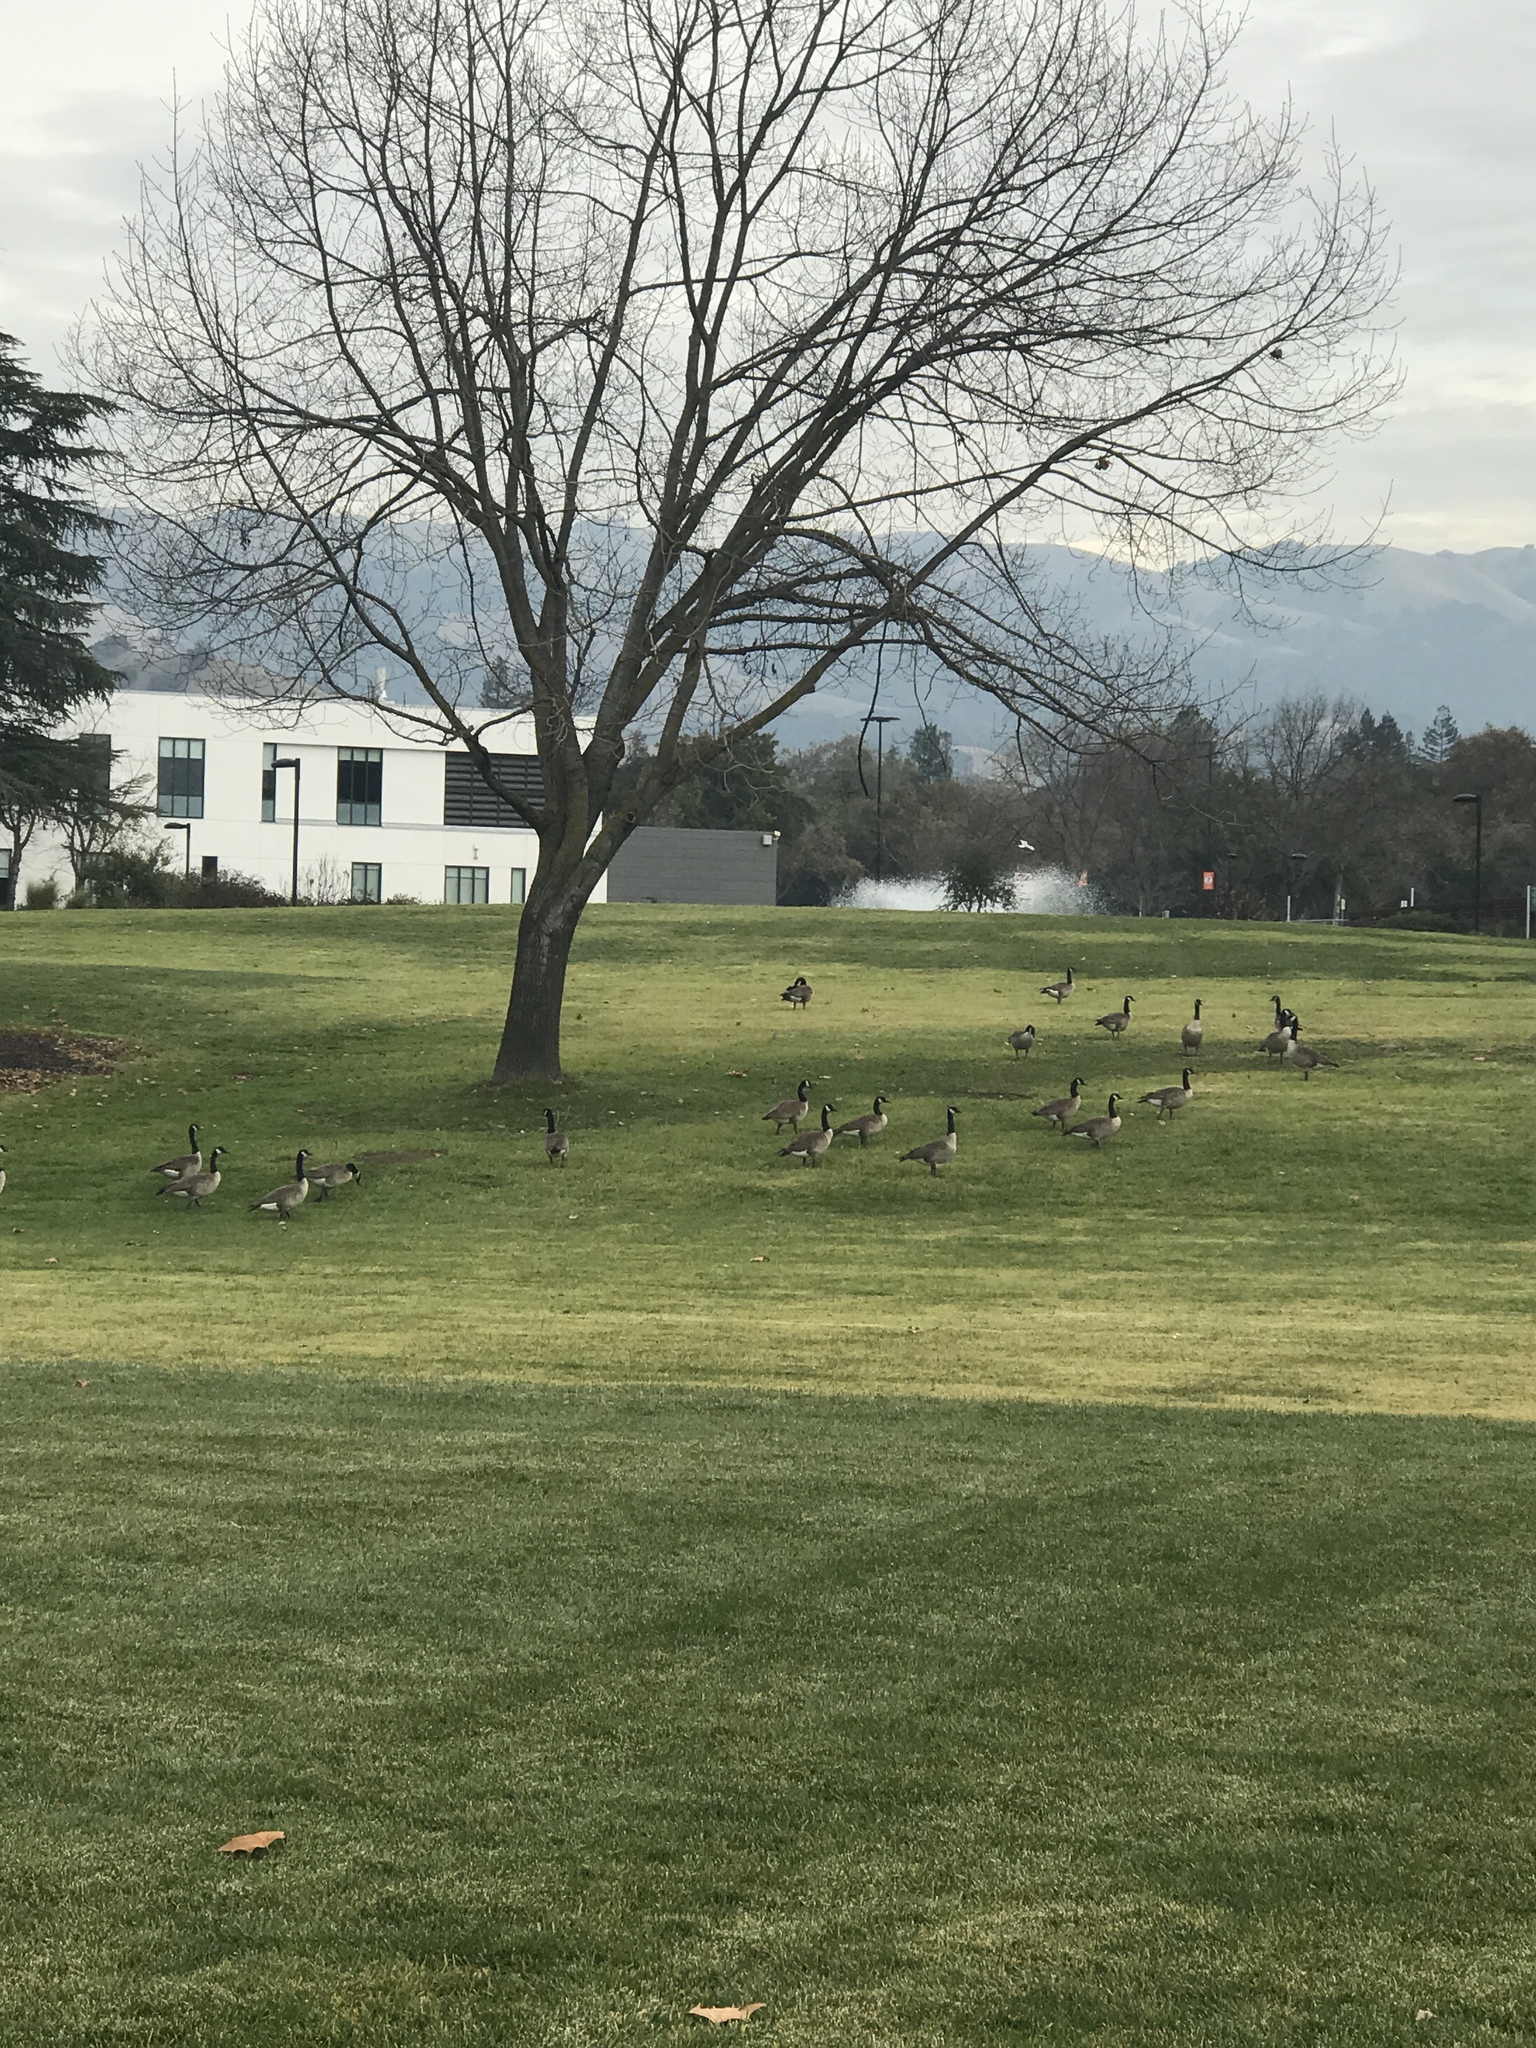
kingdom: Animalia
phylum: Chordata
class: Aves
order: Anseriformes
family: Anatidae
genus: Branta
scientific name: Branta canadensis
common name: Canada goose
